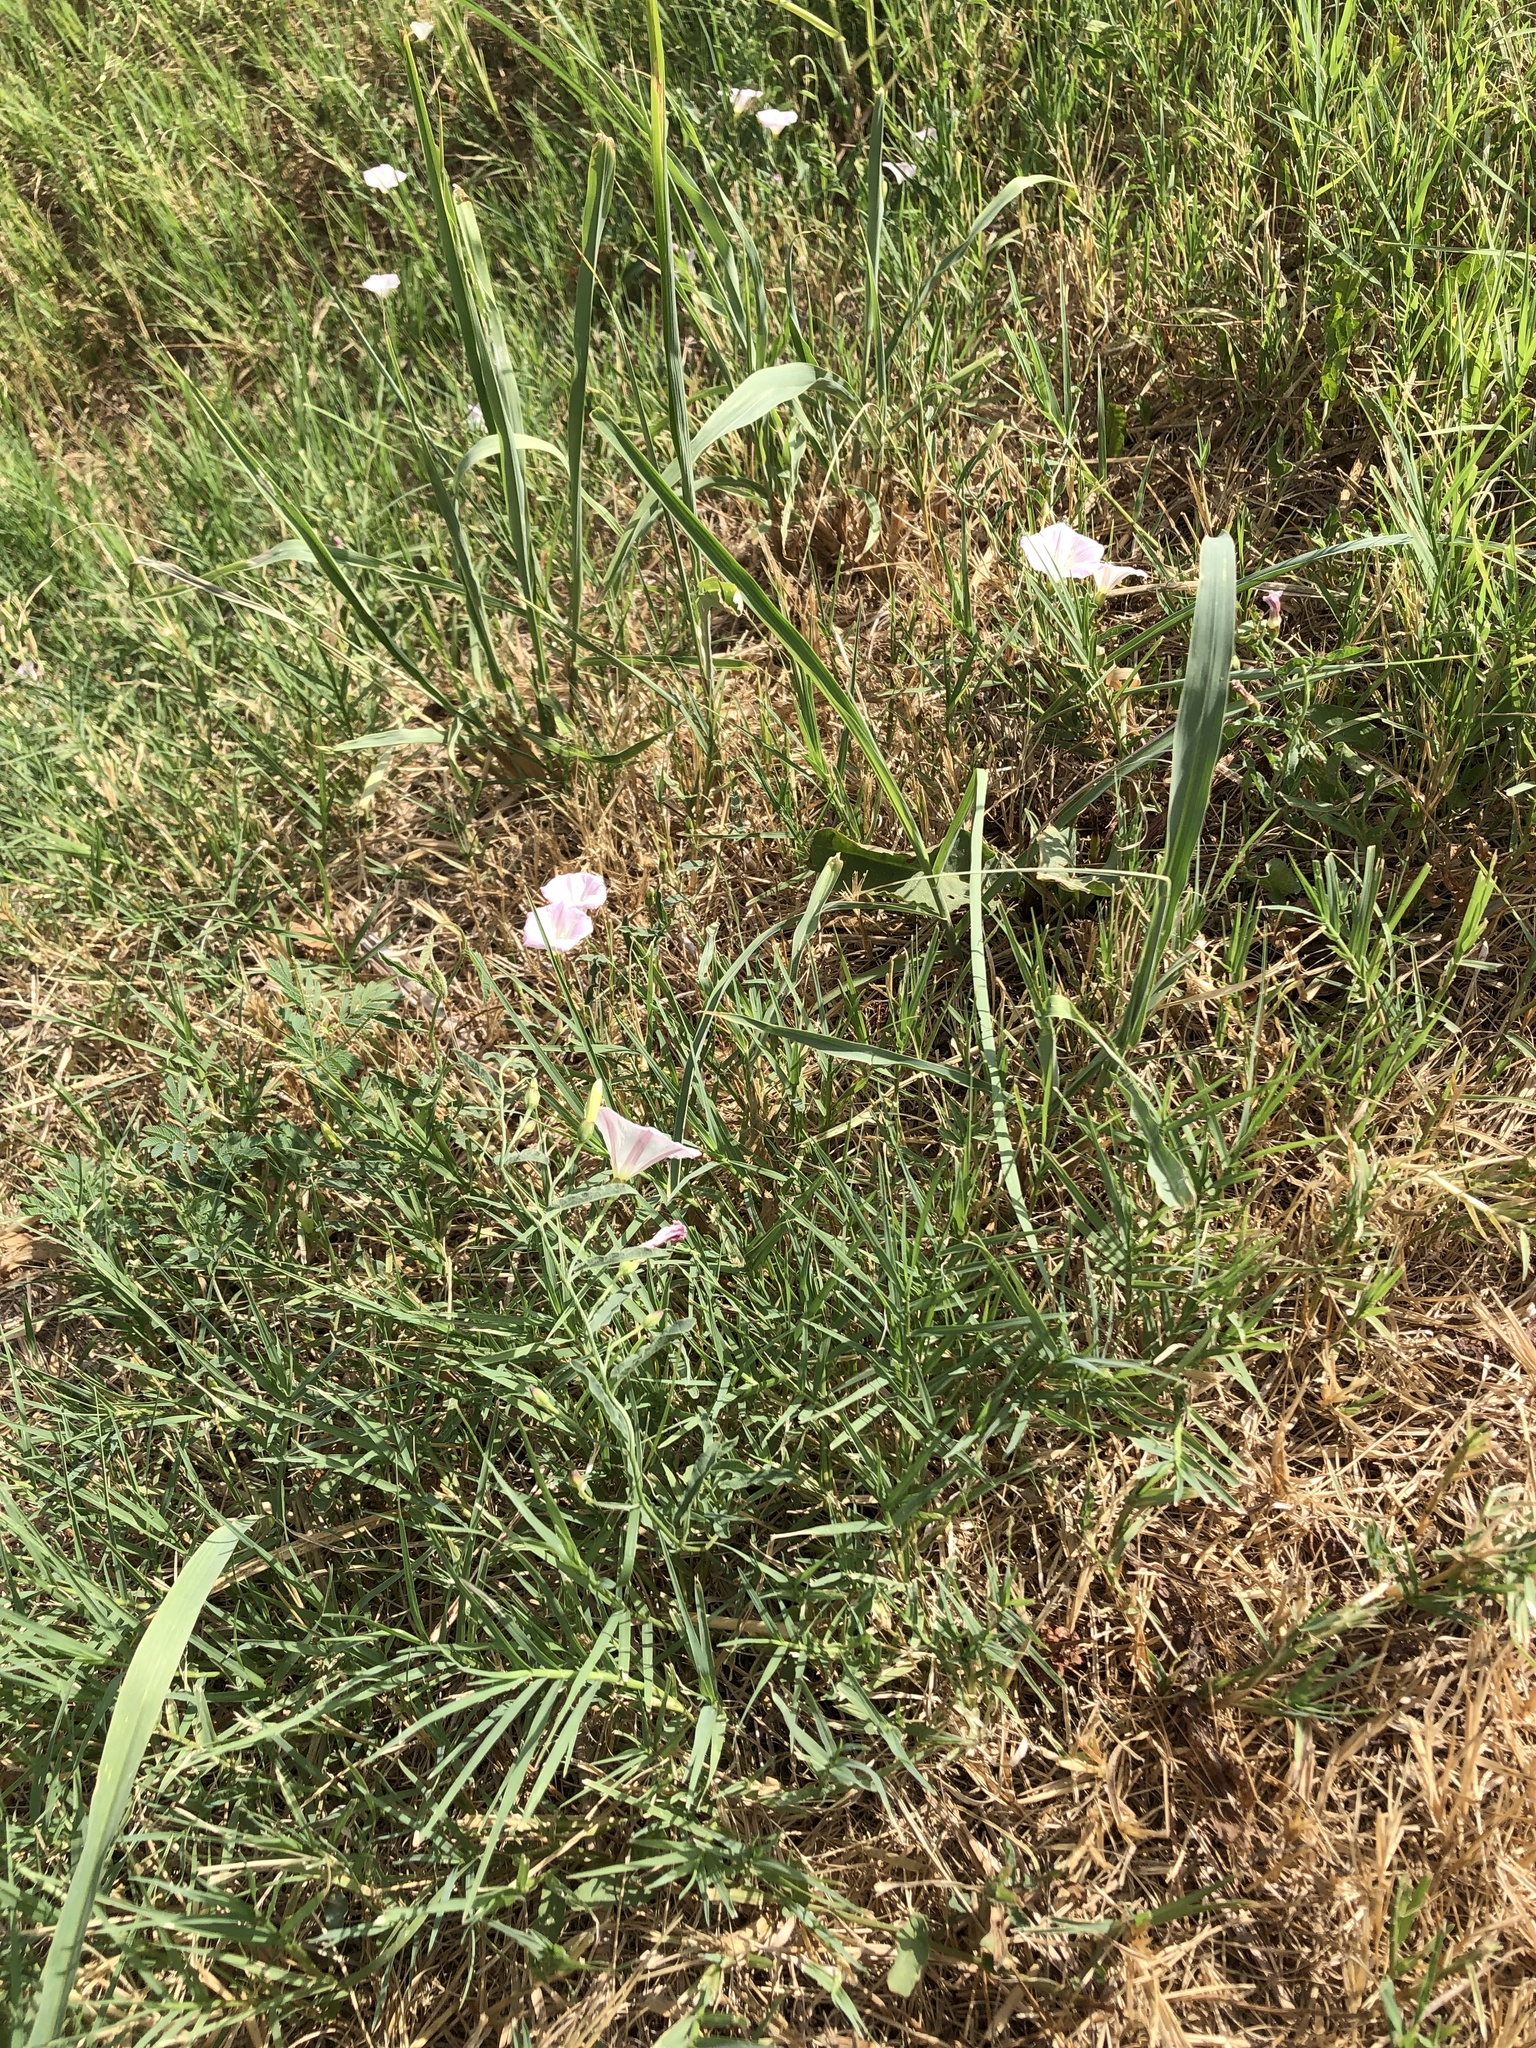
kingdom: Plantae
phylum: Tracheophyta
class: Magnoliopsida
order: Solanales
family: Convolvulaceae
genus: Convolvulus
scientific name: Convolvulus arvensis
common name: Field bindweed
